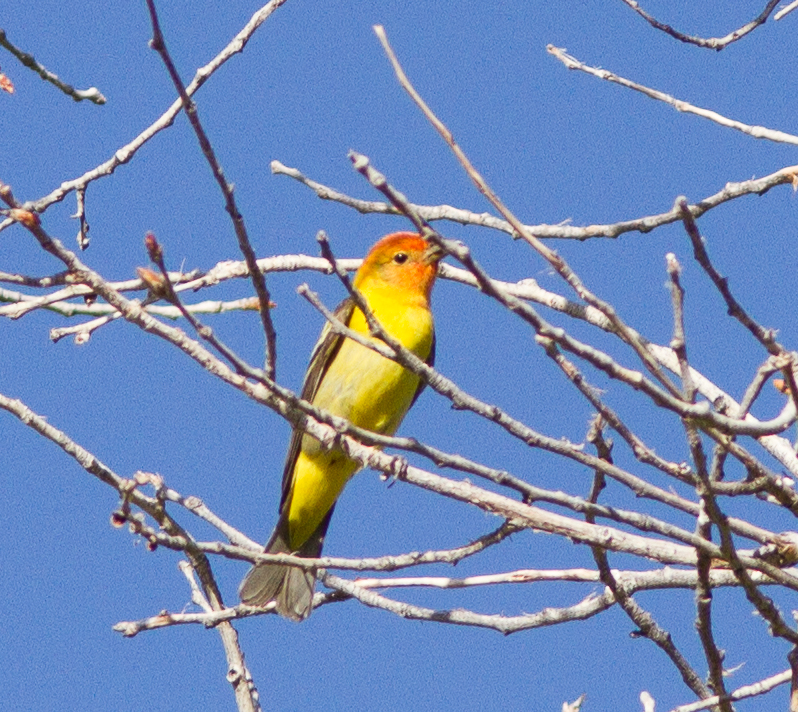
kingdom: Animalia
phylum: Chordata
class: Aves
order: Passeriformes
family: Cardinalidae
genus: Piranga
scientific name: Piranga ludoviciana
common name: Western tanager
